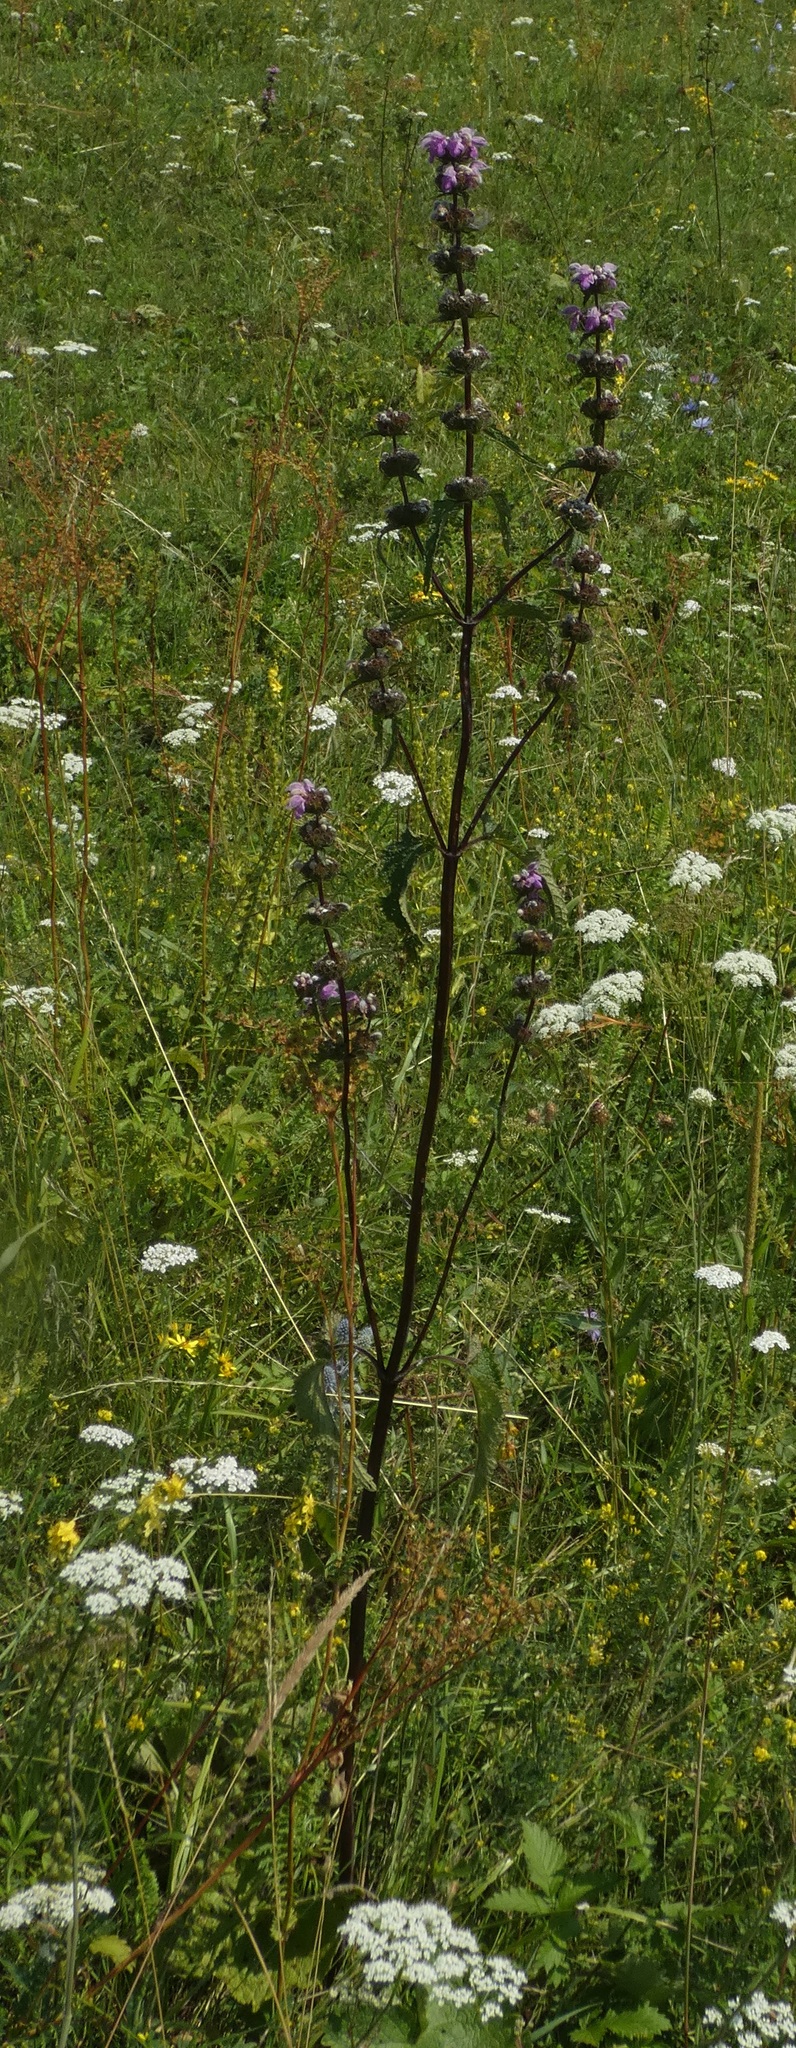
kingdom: Plantae
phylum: Tracheophyta
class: Magnoliopsida
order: Lamiales
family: Lamiaceae
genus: Phlomoides
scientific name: Phlomoides tuberosa
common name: Tuberous jerusalem sage
